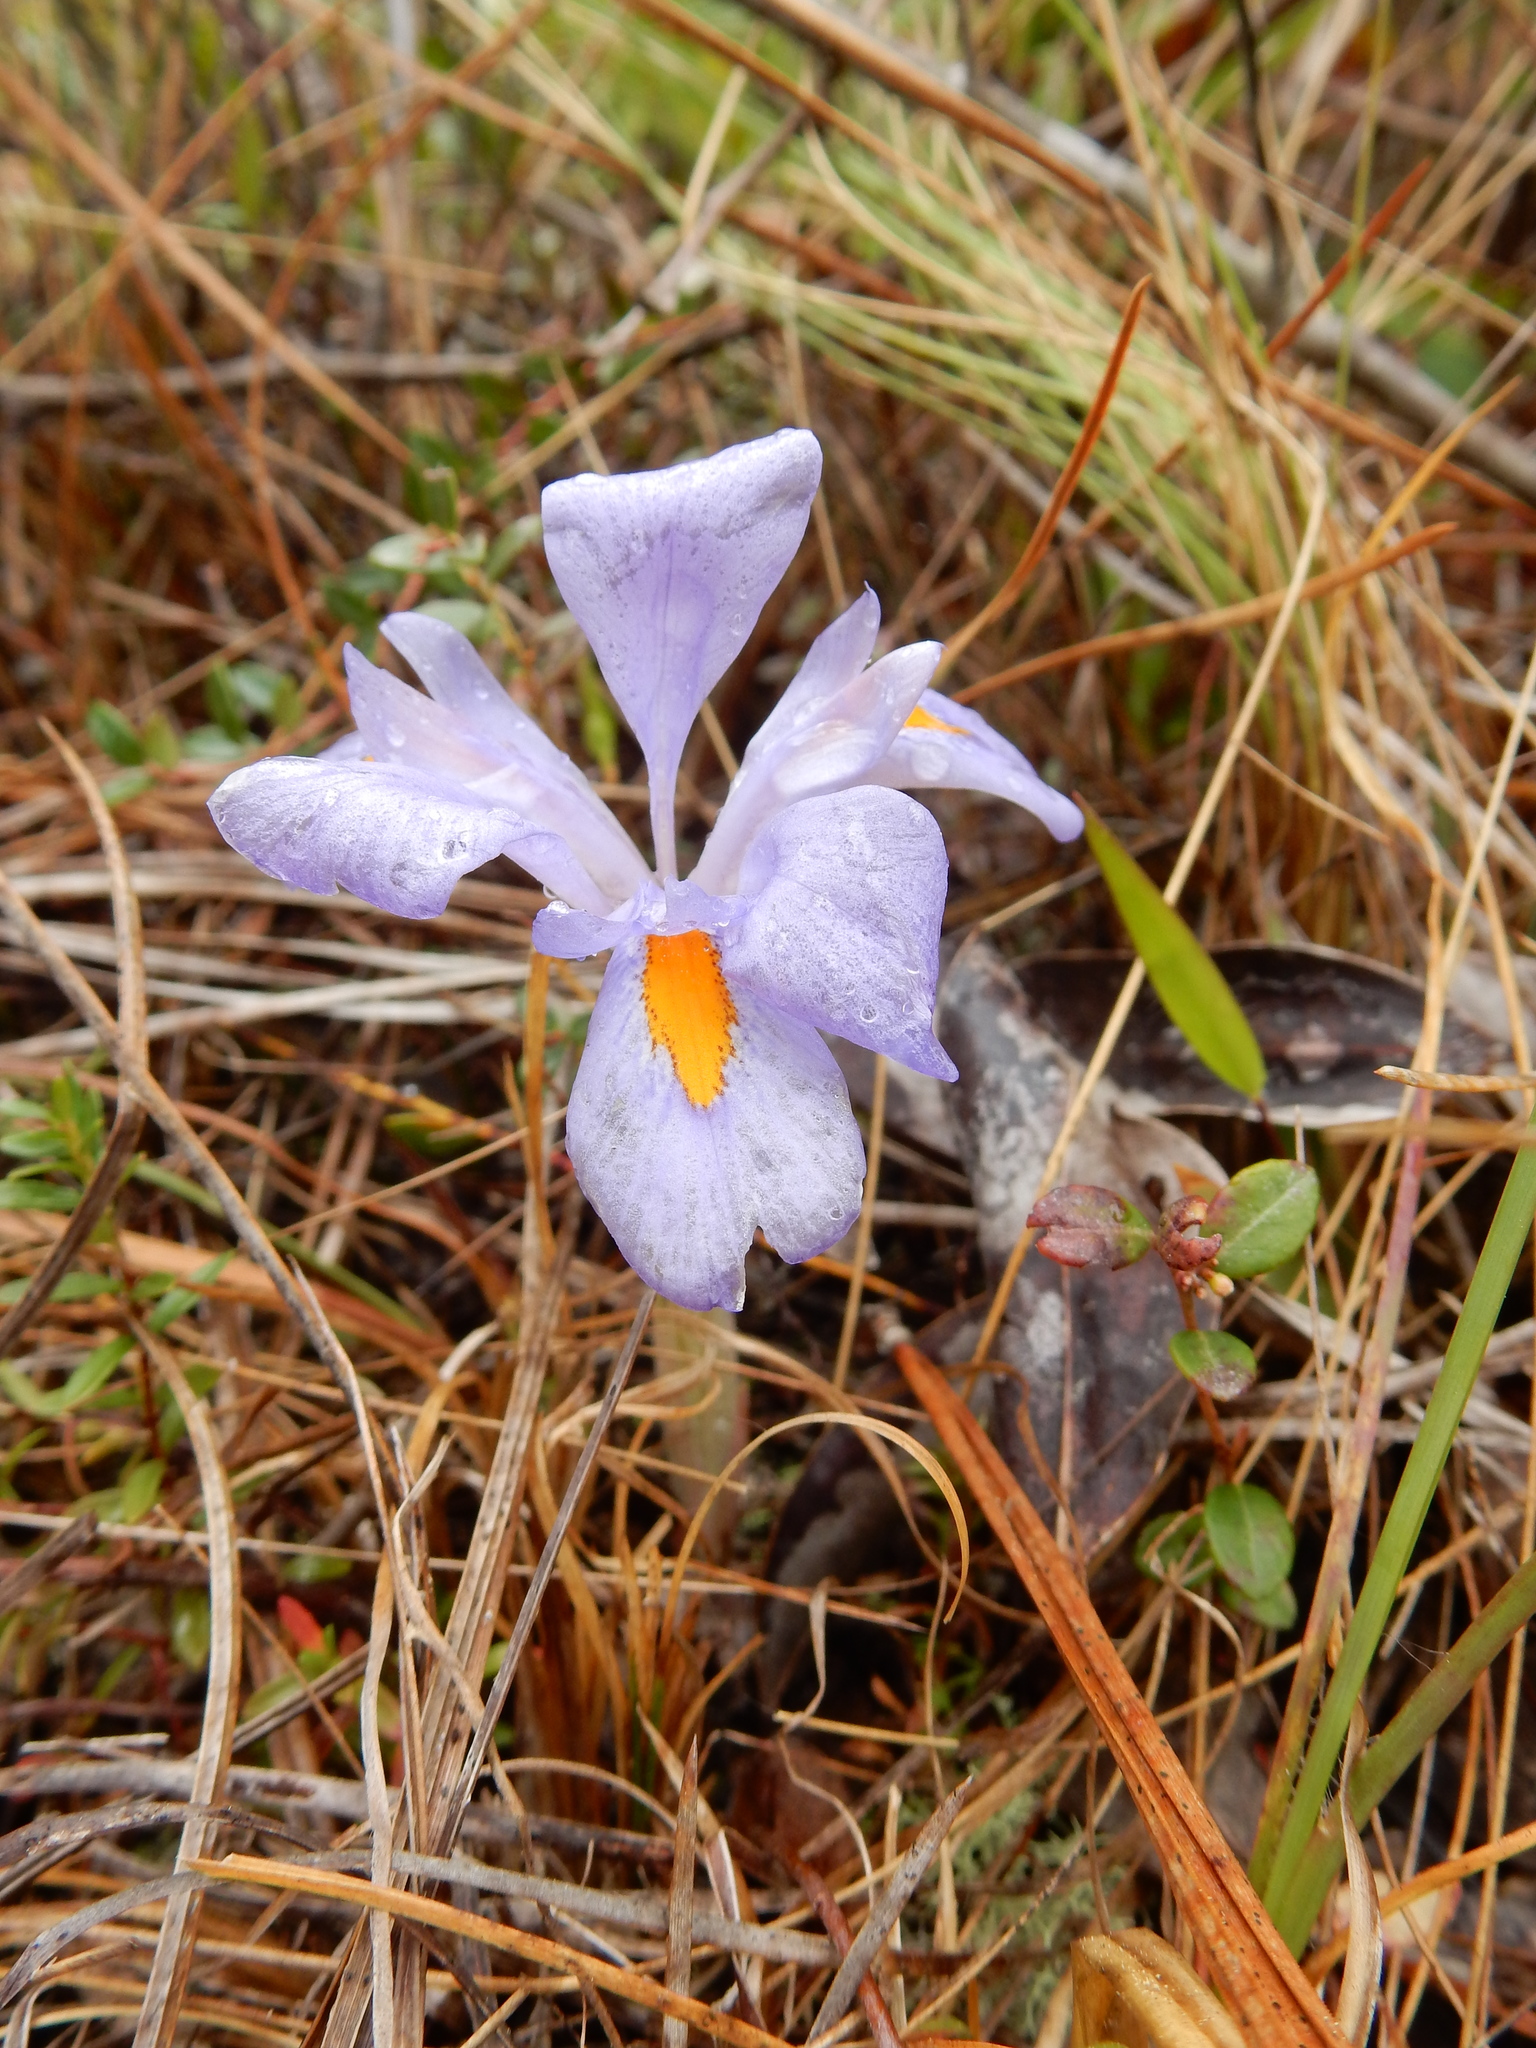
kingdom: Plantae
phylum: Tracheophyta
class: Liliopsida
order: Asparagales
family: Iridaceae
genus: Iris
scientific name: Iris verna
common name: Dwarf iris
